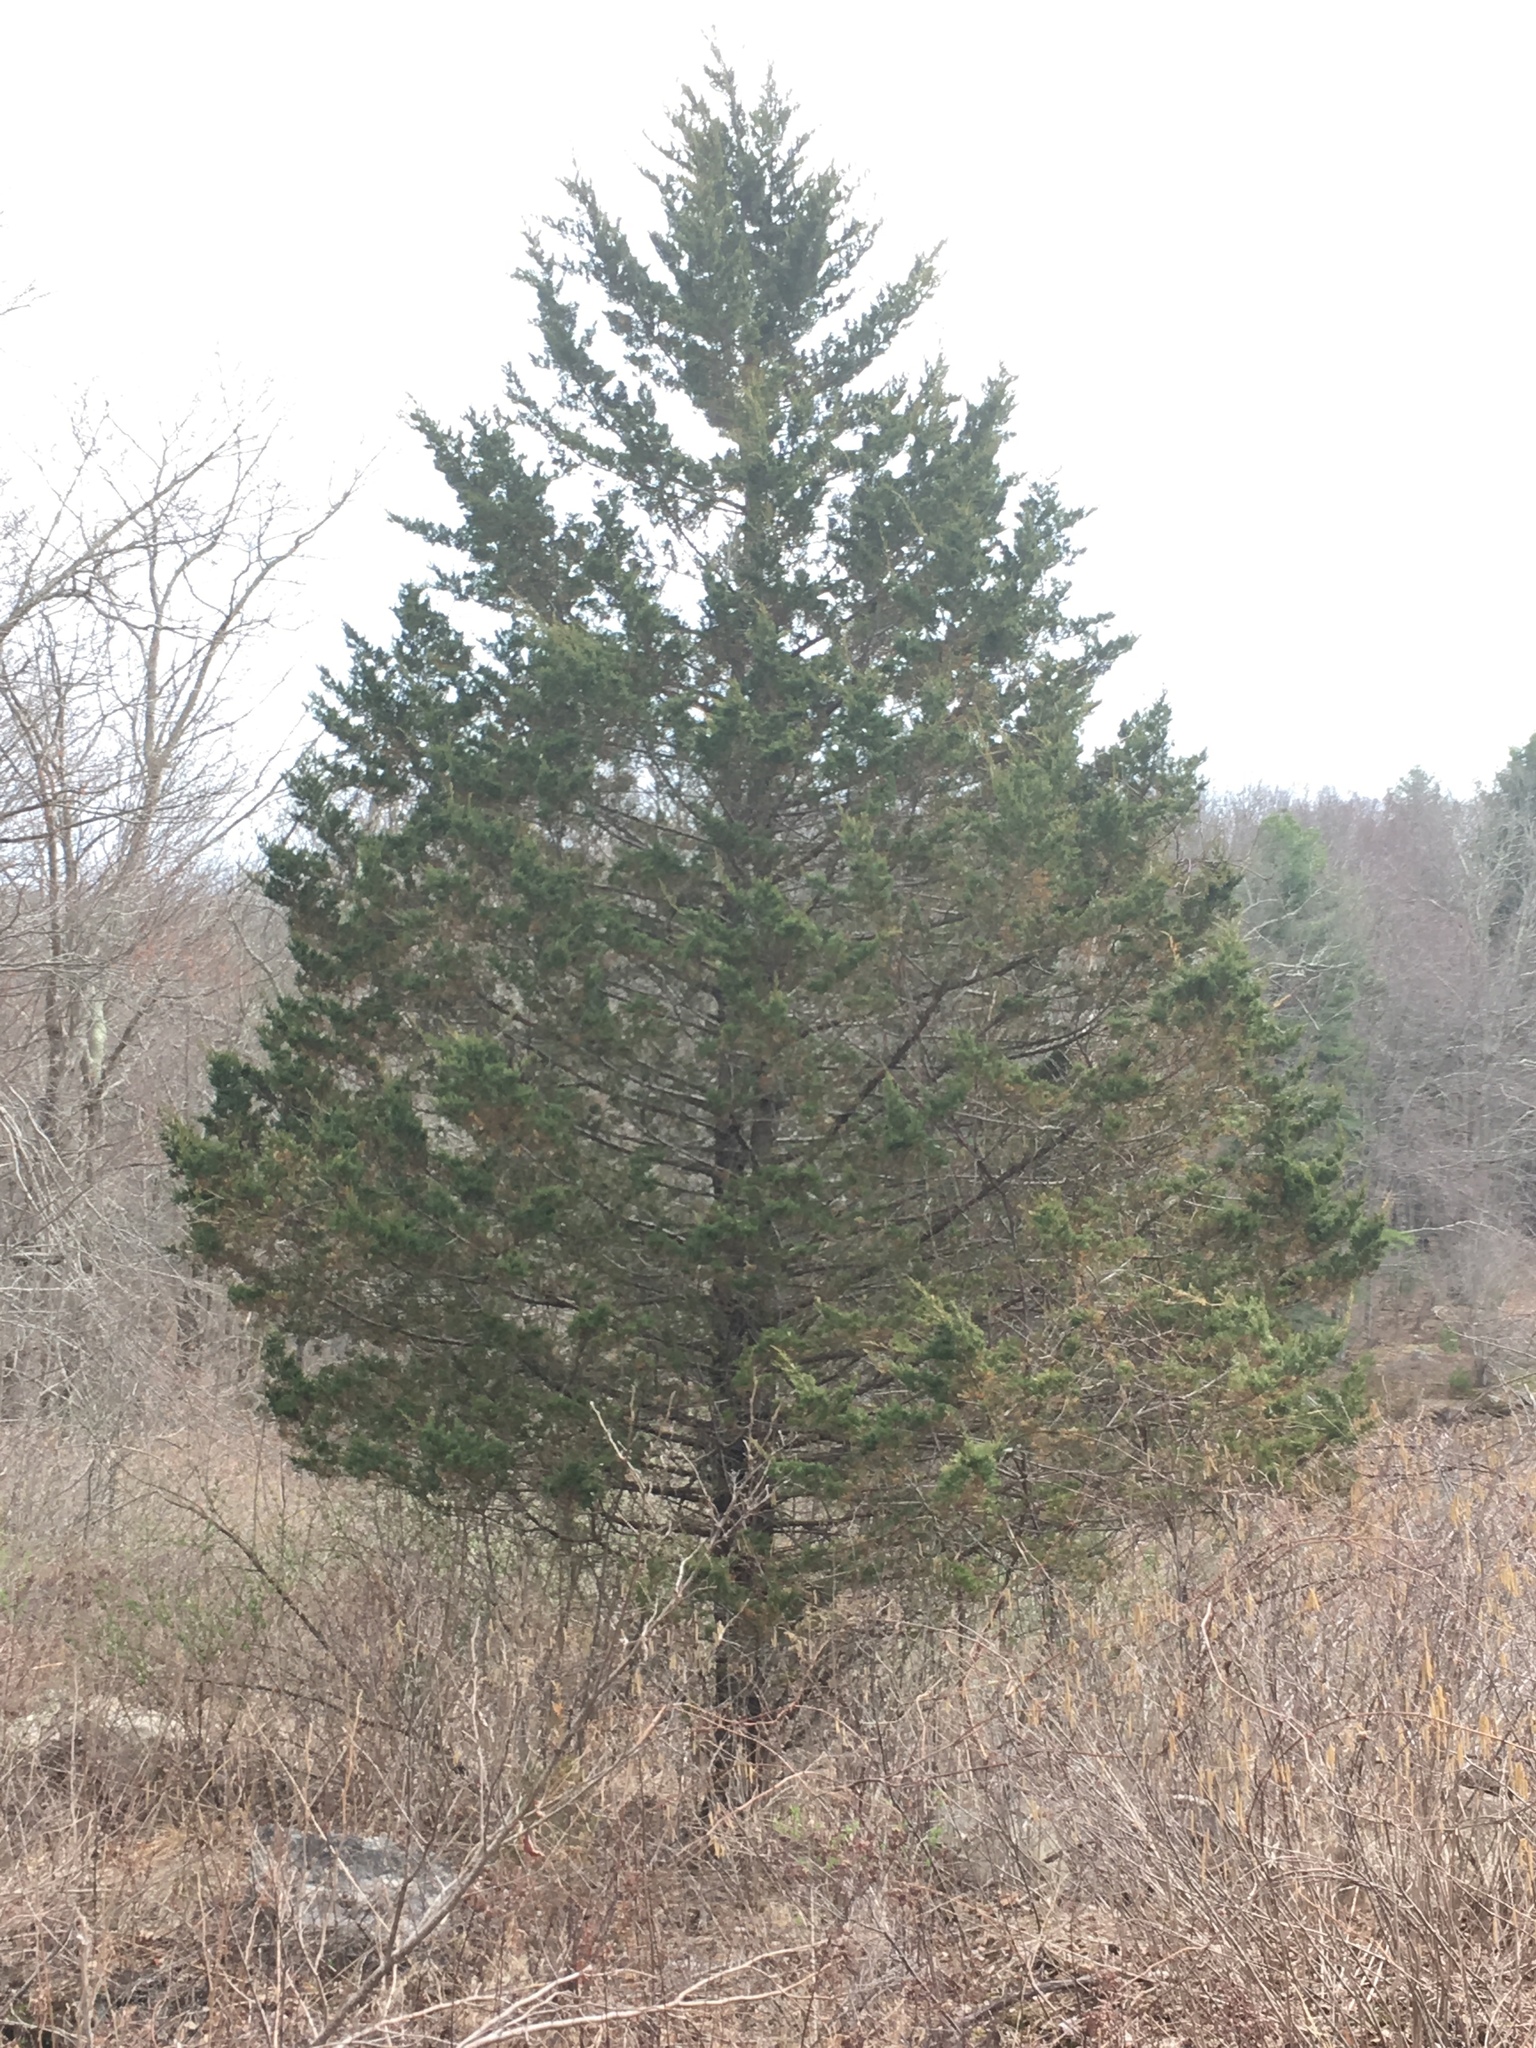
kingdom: Plantae
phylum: Tracheophyta
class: Pinopsida
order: Pinales
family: Cupressaceae
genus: Juniperus
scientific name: Juniperus virginiana
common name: Red juniper
